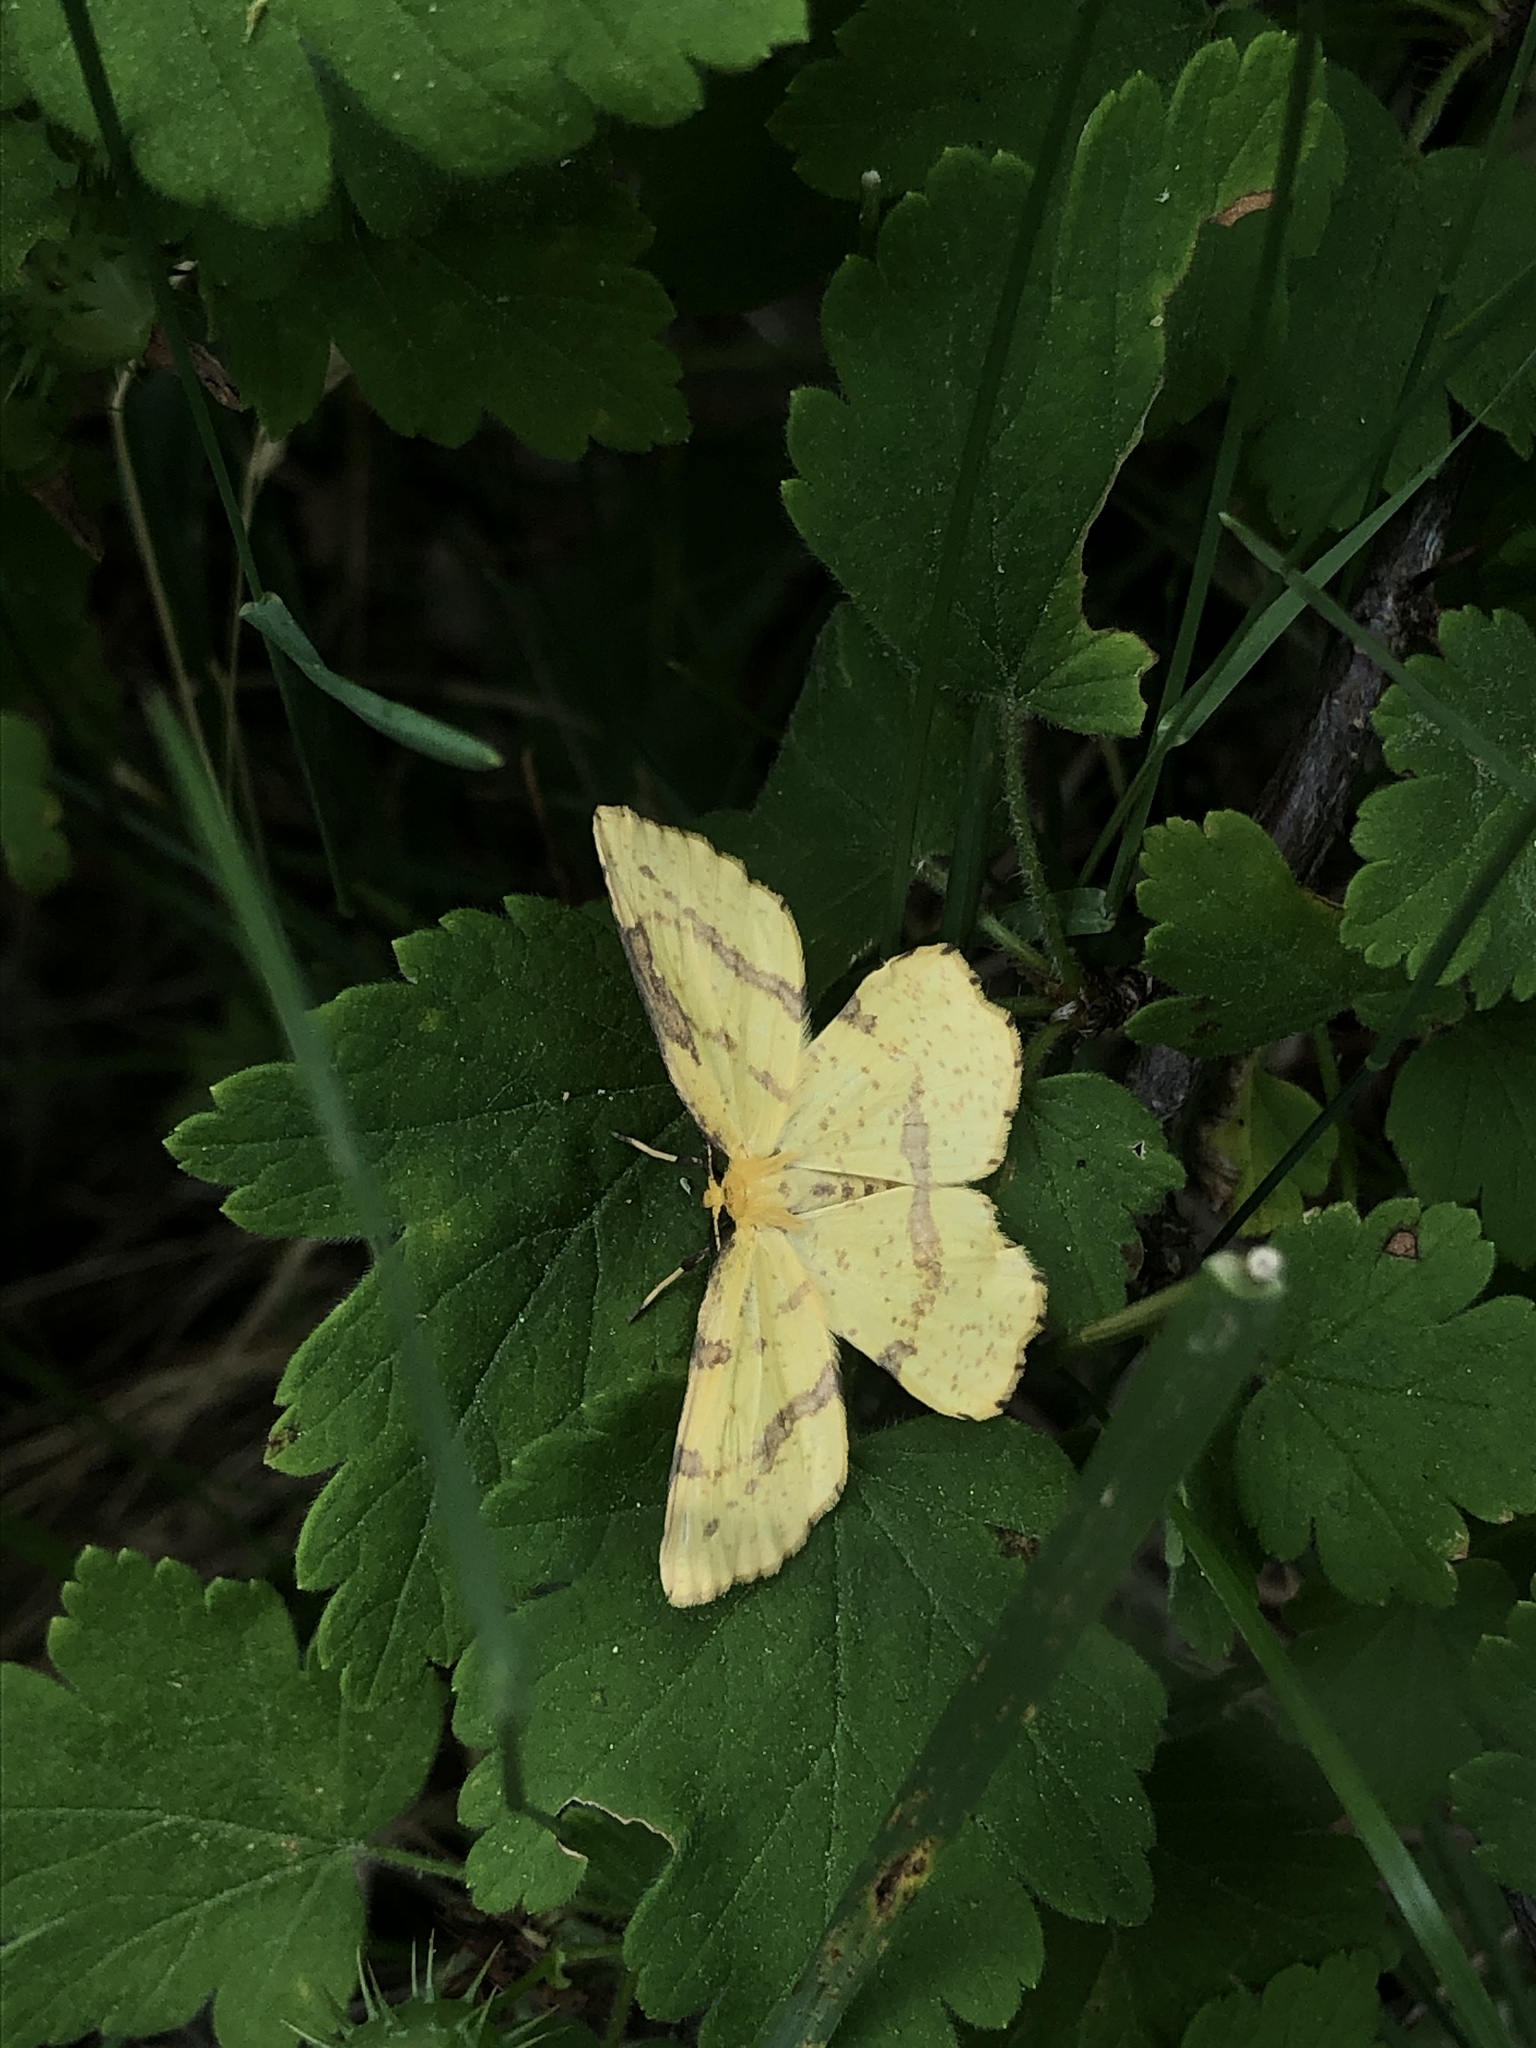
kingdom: Animalia
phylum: Arthropoda
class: Insecta
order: Lepidoptera
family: Geometridae
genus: Xanthotype
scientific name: Xanthotype
